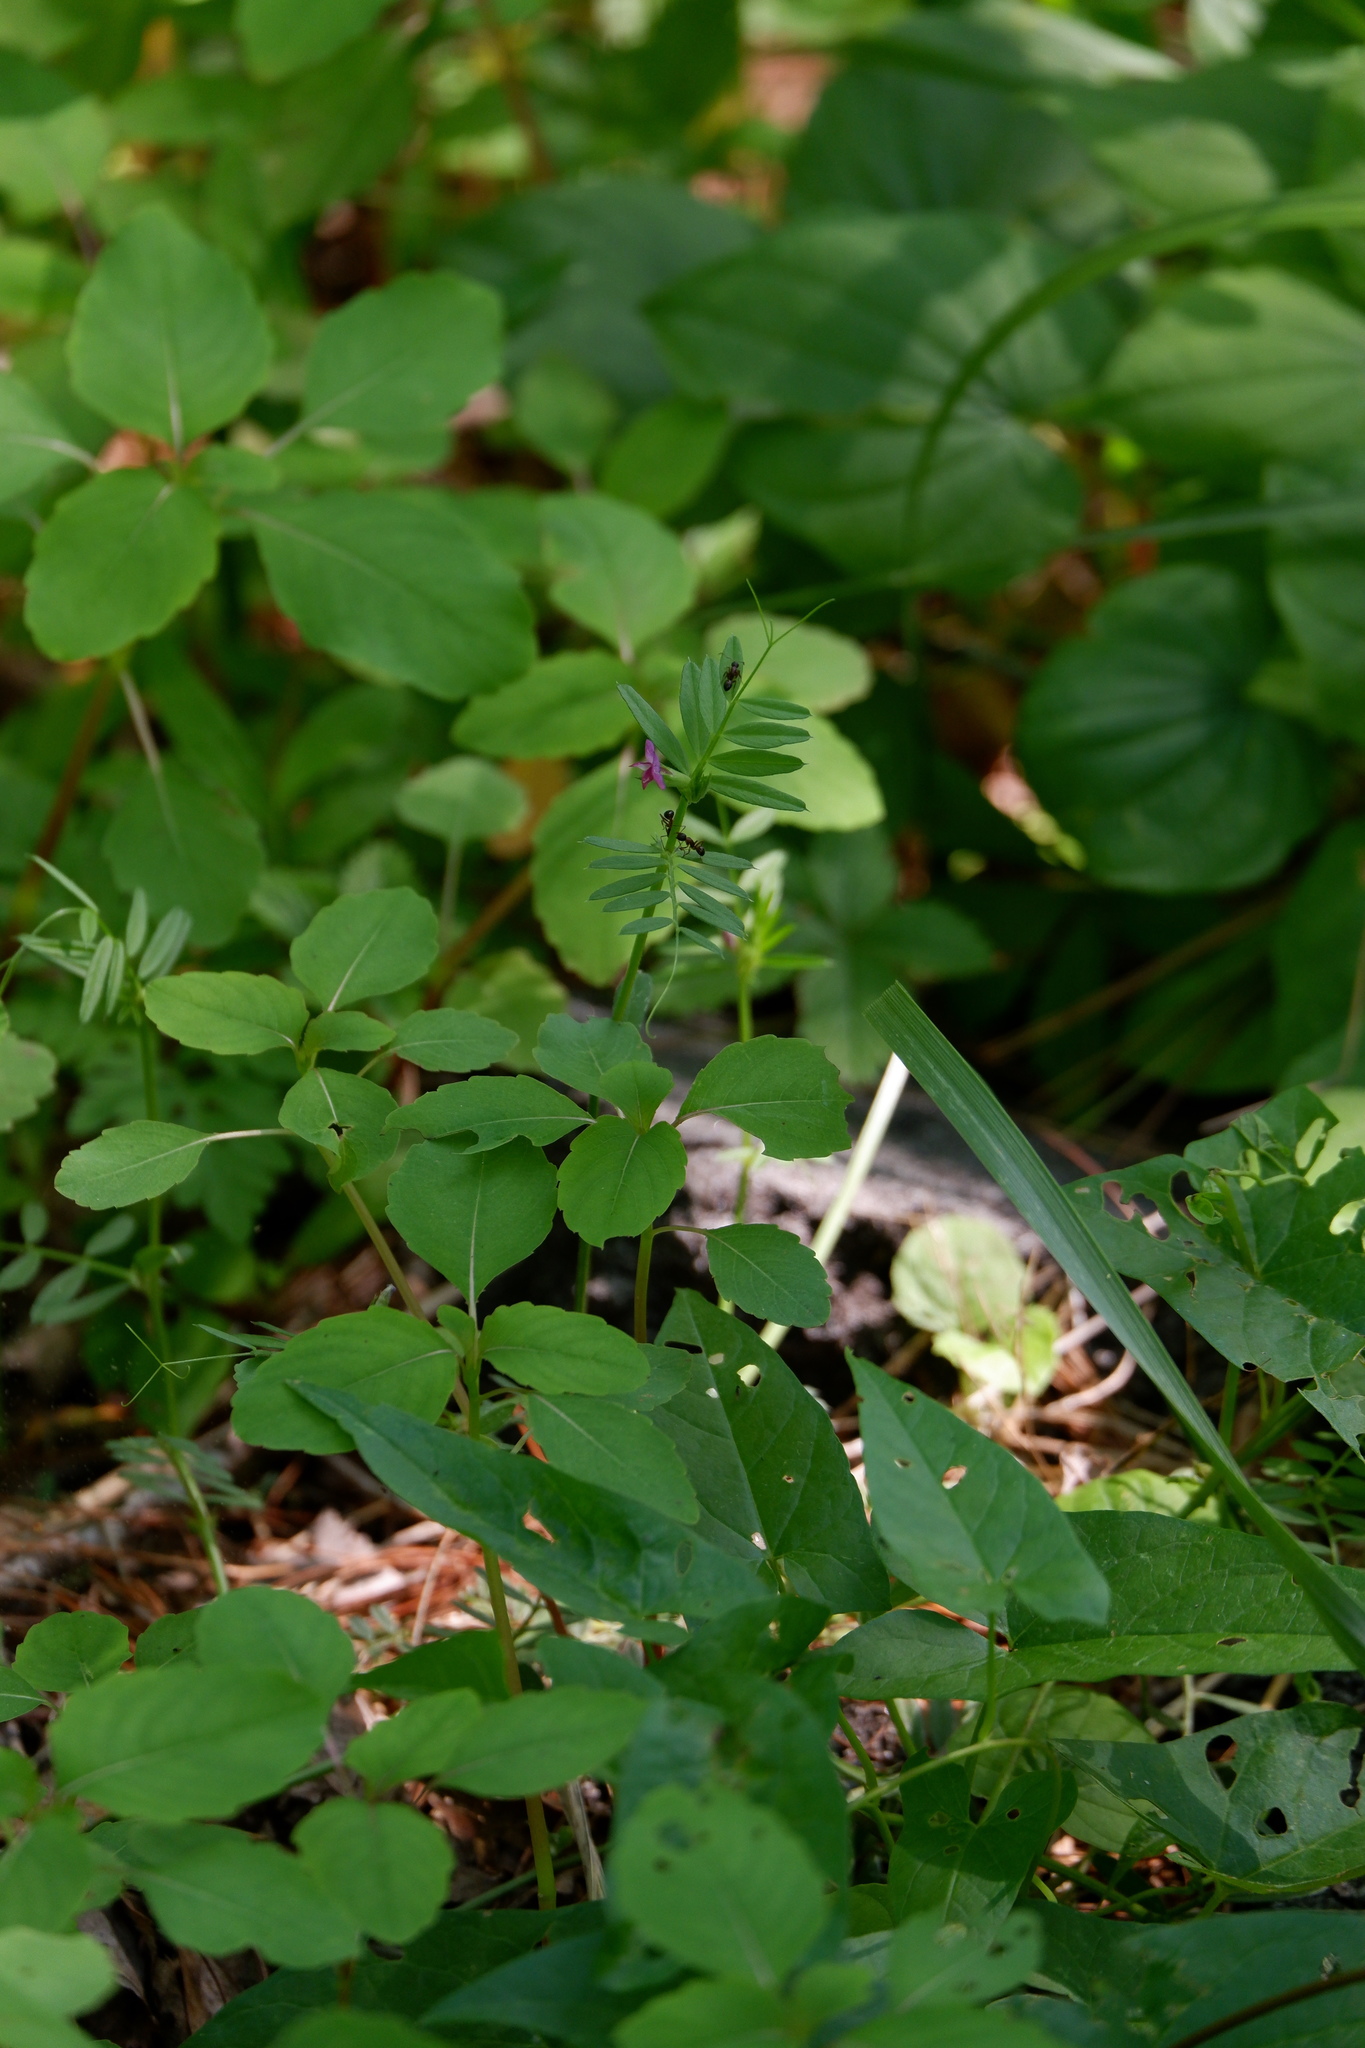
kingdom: Plantae
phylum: Tracheophyta
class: Magnoliopsida
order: Fabales
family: Fabaceae
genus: Vicia
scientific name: Vicia sativa
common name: Garden vetch
